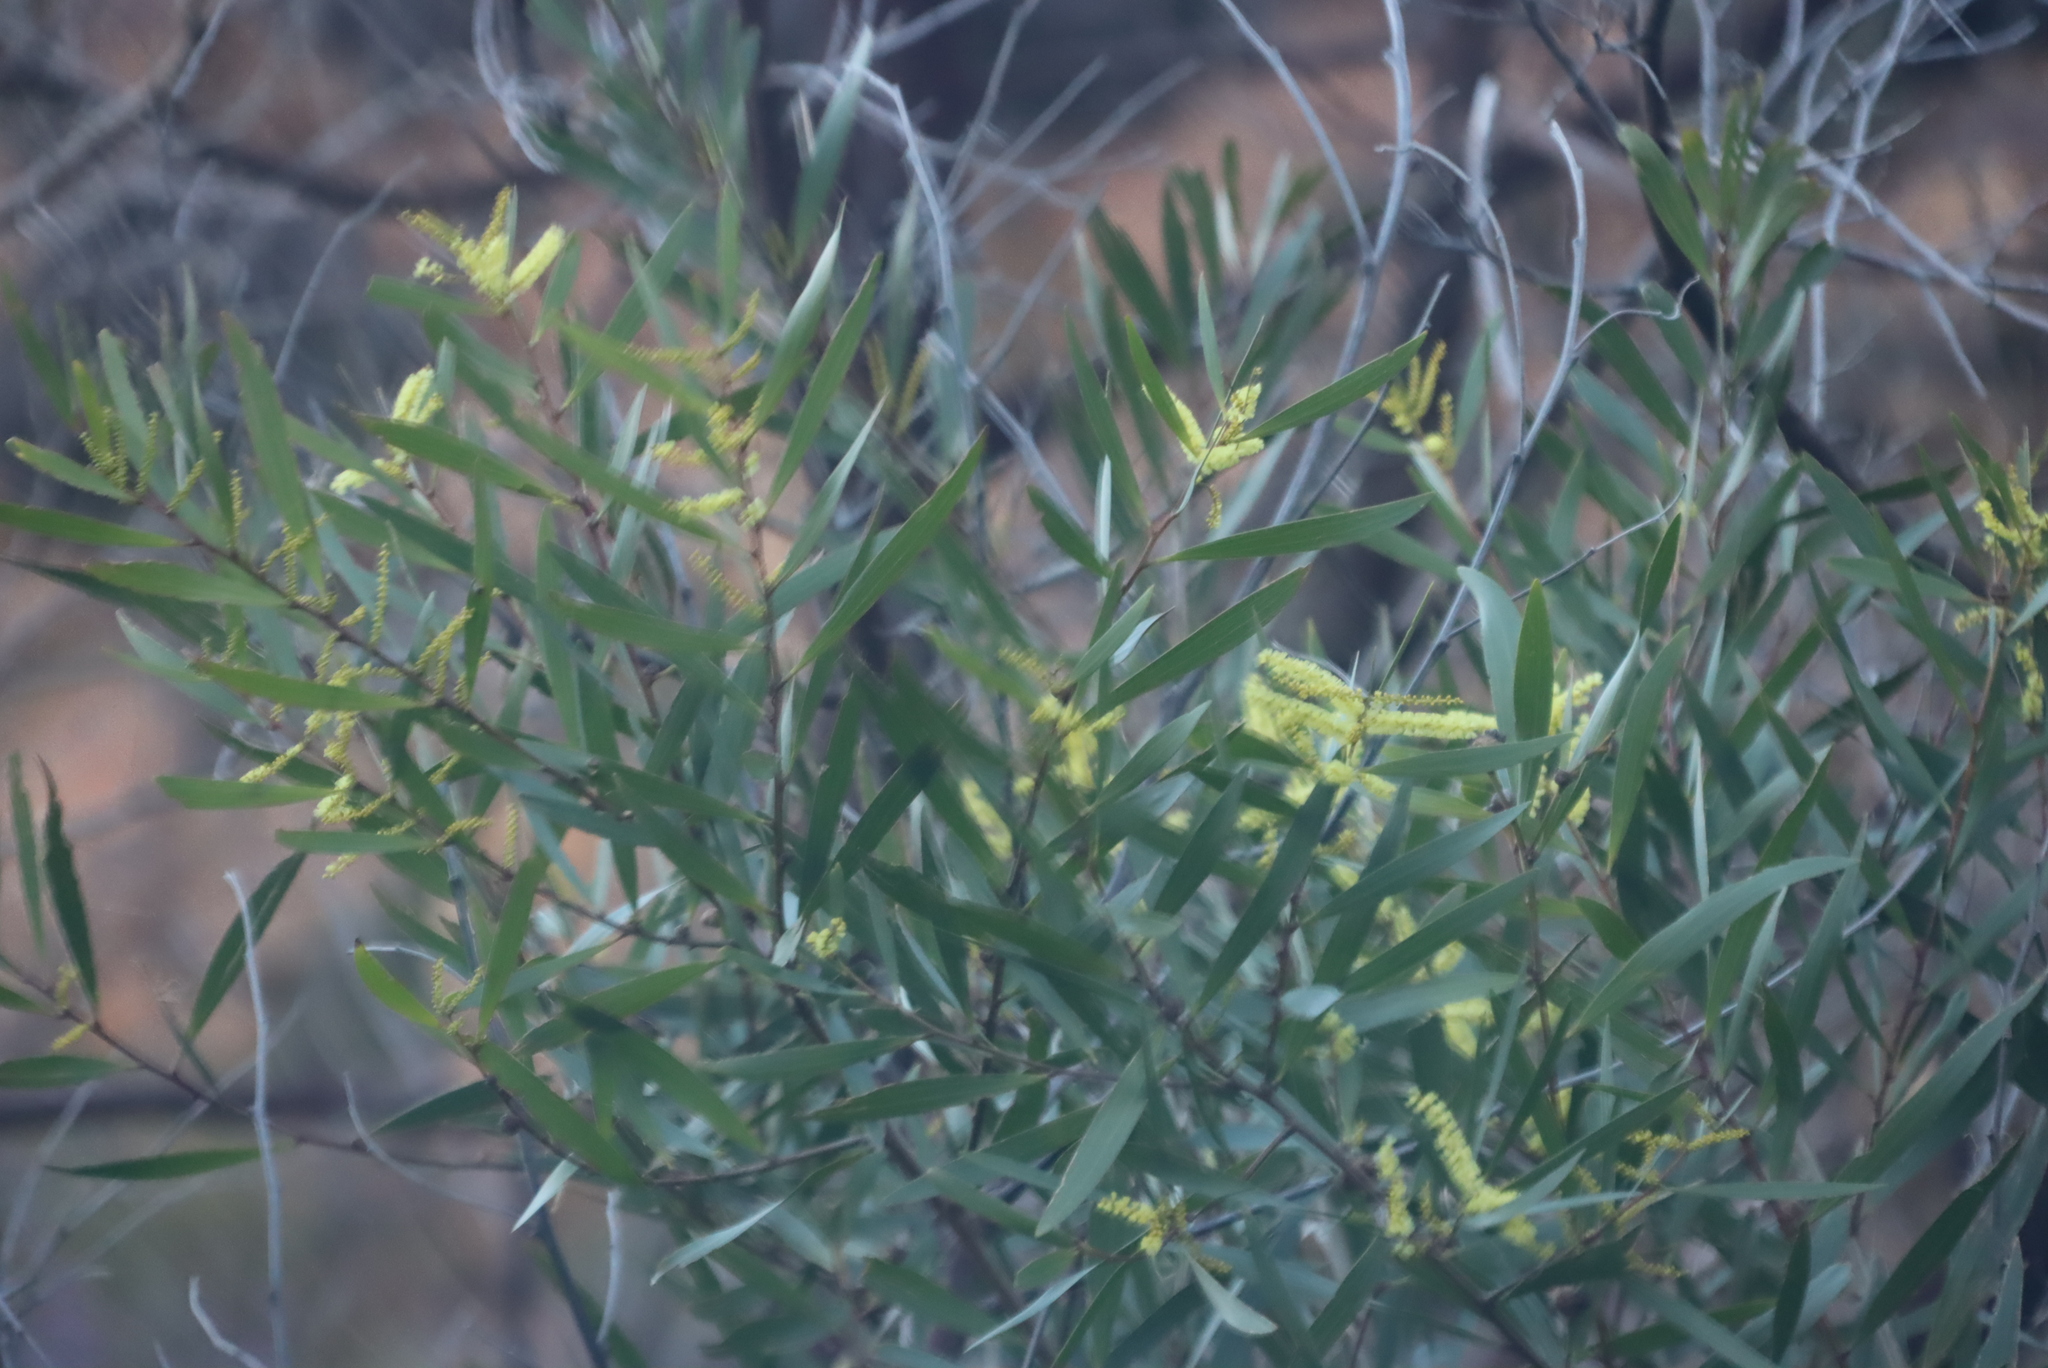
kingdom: Plantae
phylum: Tracheophyta
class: Magnoliopsida
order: Fabales
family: Fabaceae
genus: Acacia
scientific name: Acacia longifolia
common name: Sydney golden wattle
